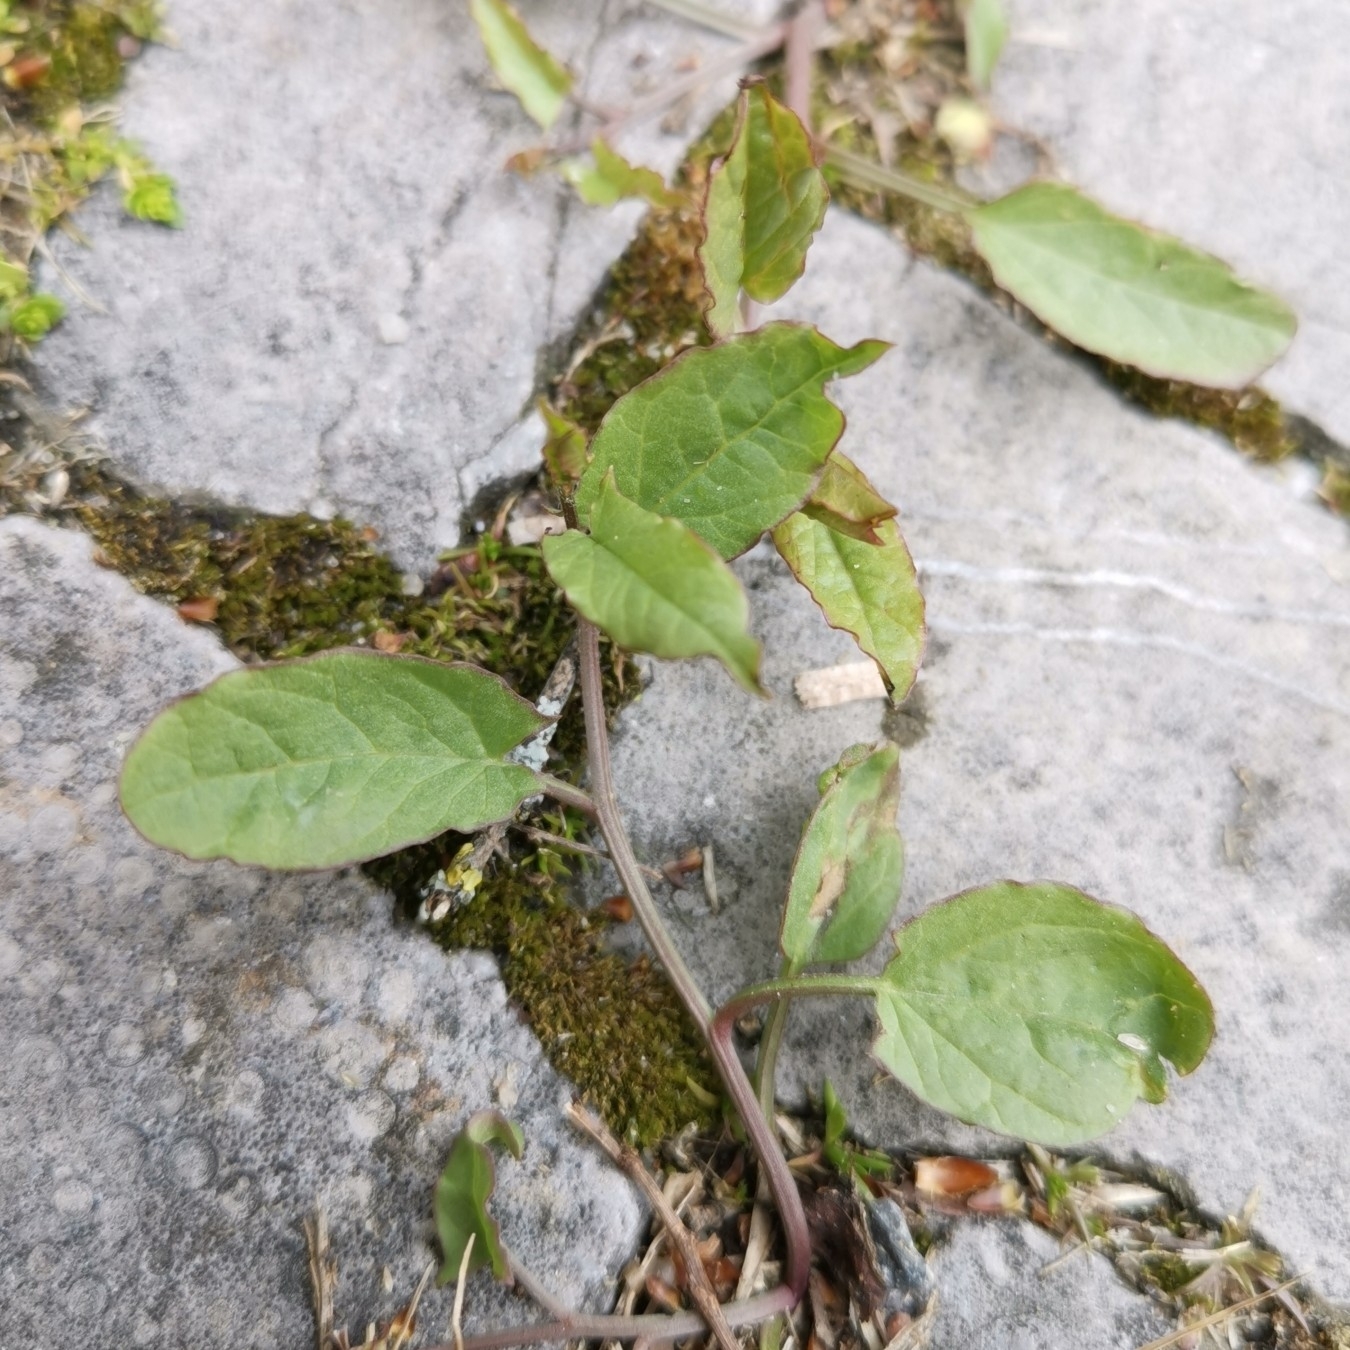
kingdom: Plantae
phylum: Tracheophyta
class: Magnoliopsida
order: Solanales
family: Convolvulaceae
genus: Convolvulus
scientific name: Convolvulus arvensis
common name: Field bindweed
